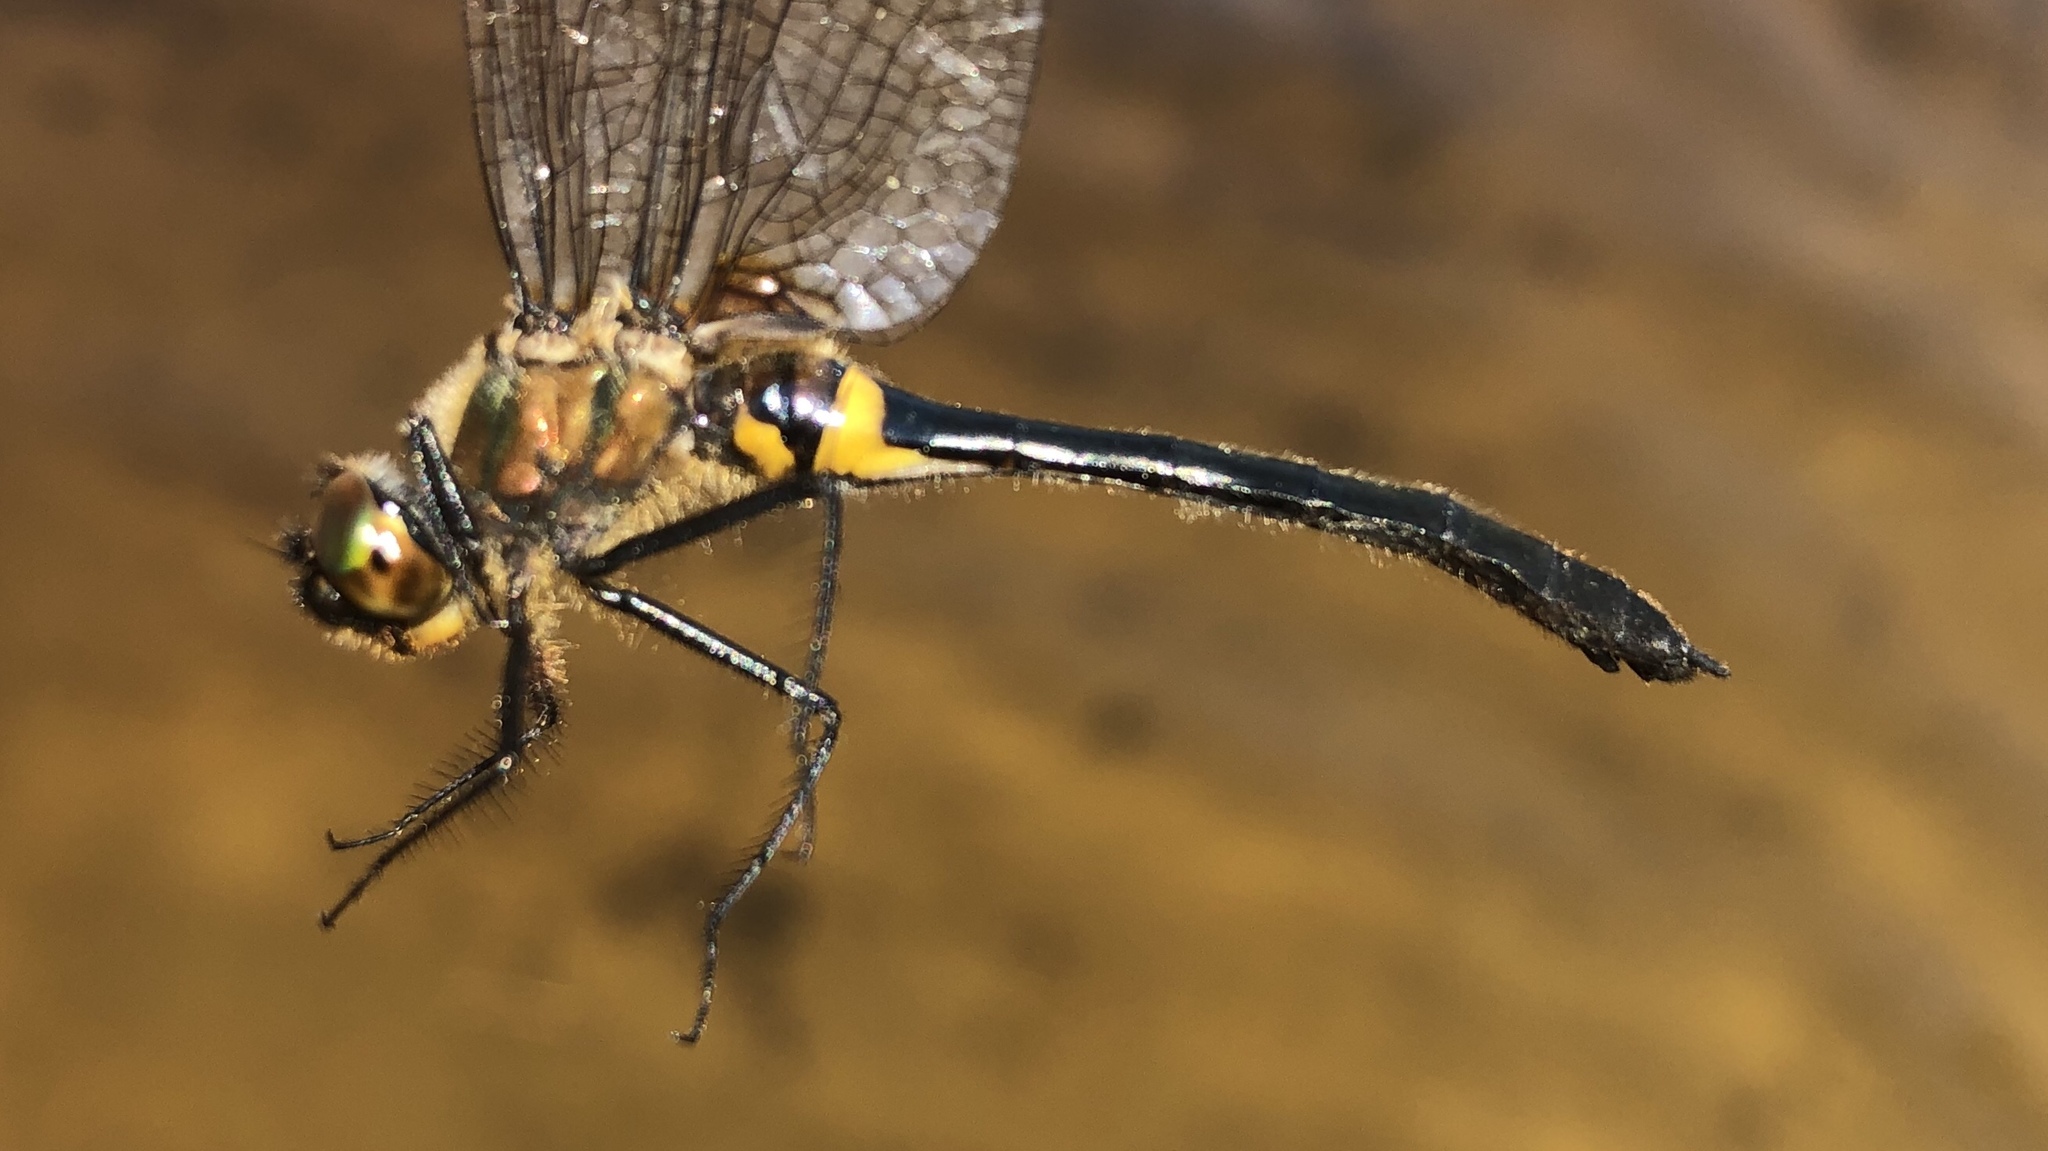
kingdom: Animalia
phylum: Arthropoda
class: Insecta
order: Odonata
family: Corduliidae
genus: Dorocordulia
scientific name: Dorocordulia libera
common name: Racket-tailed emerald
